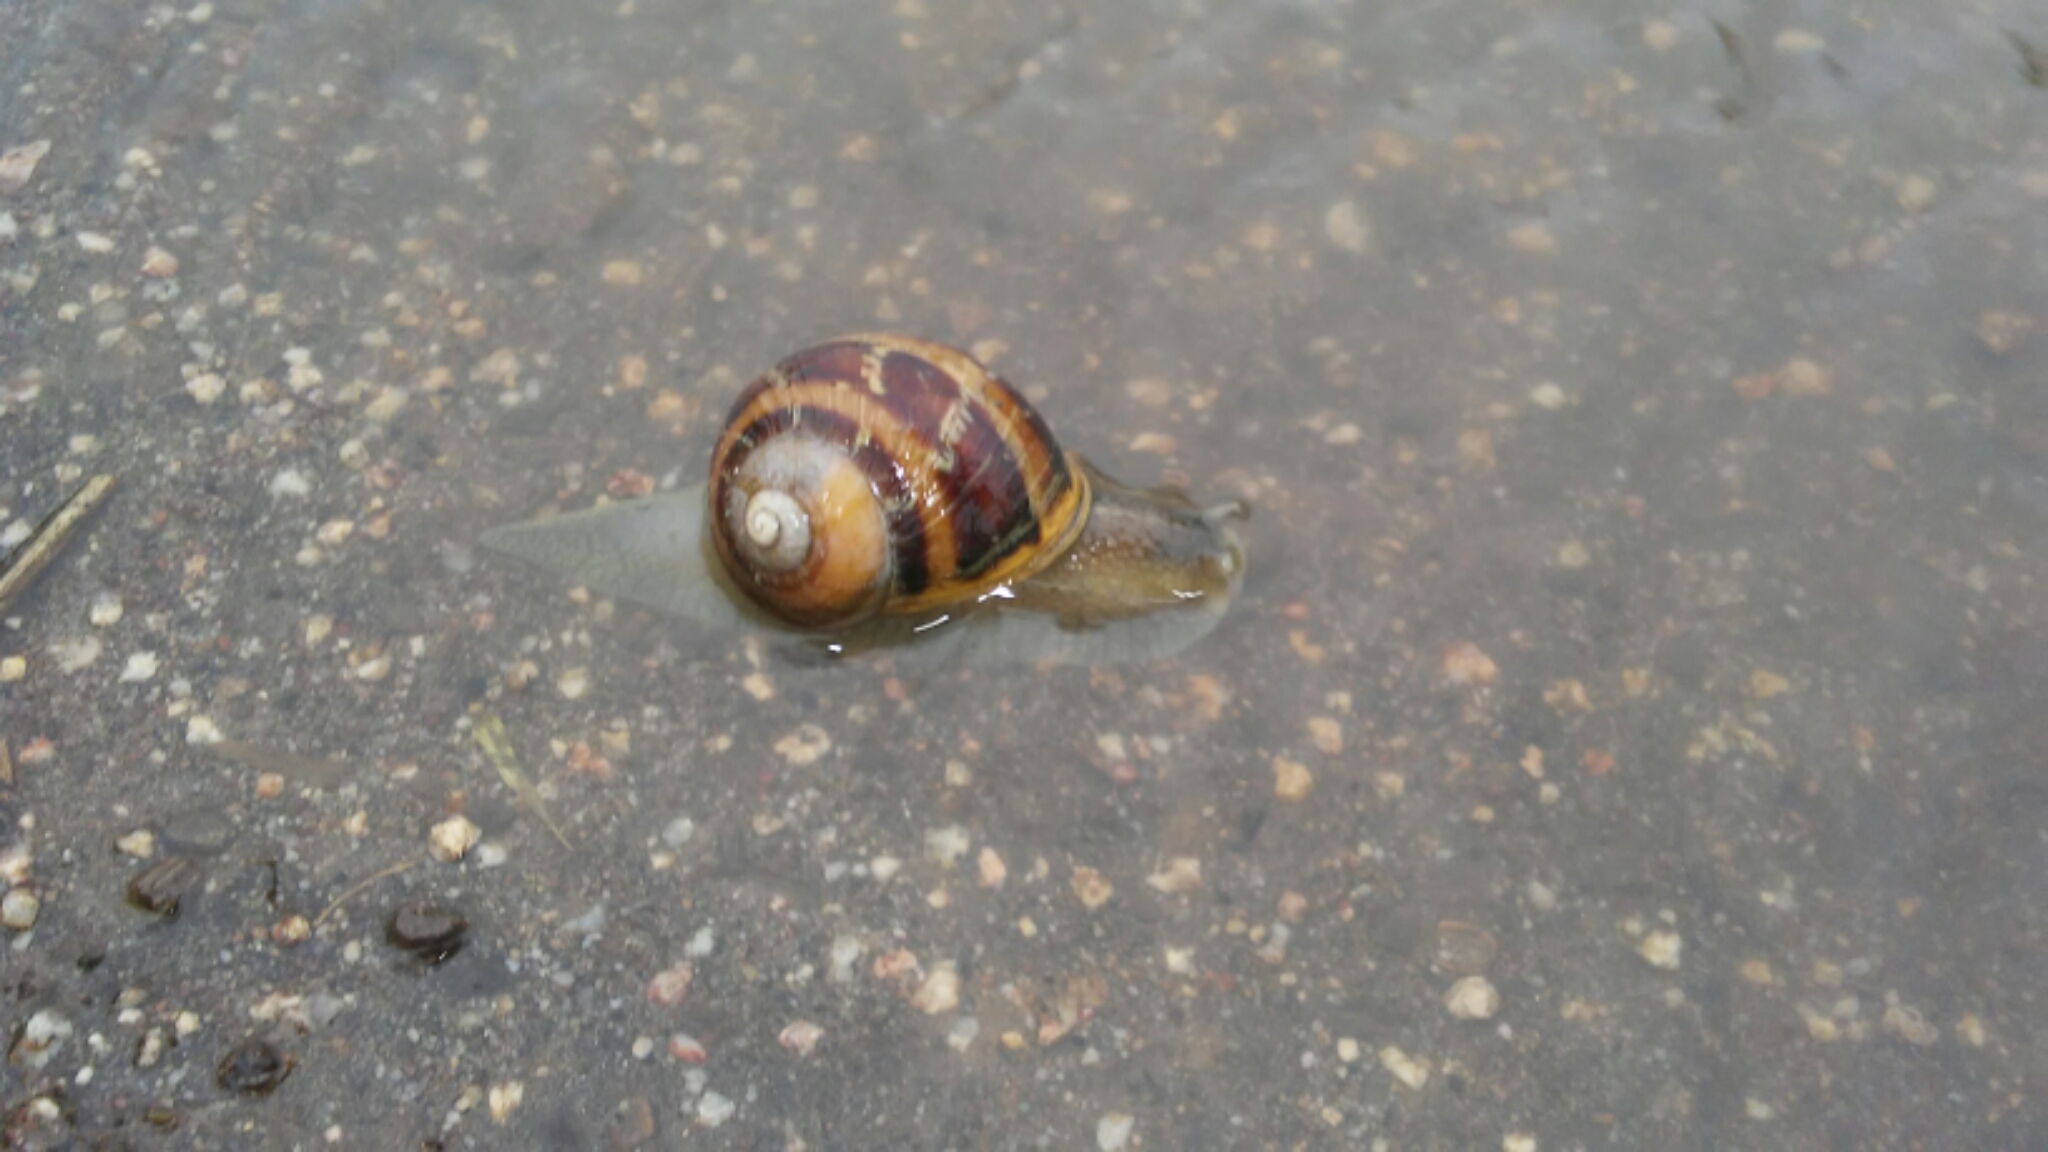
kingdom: Animalia
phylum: Mollusca
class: Gastropoda
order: Stylommatophora
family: Helicidae
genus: Cornu
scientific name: Cornu aspersum
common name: Brown garden snail
